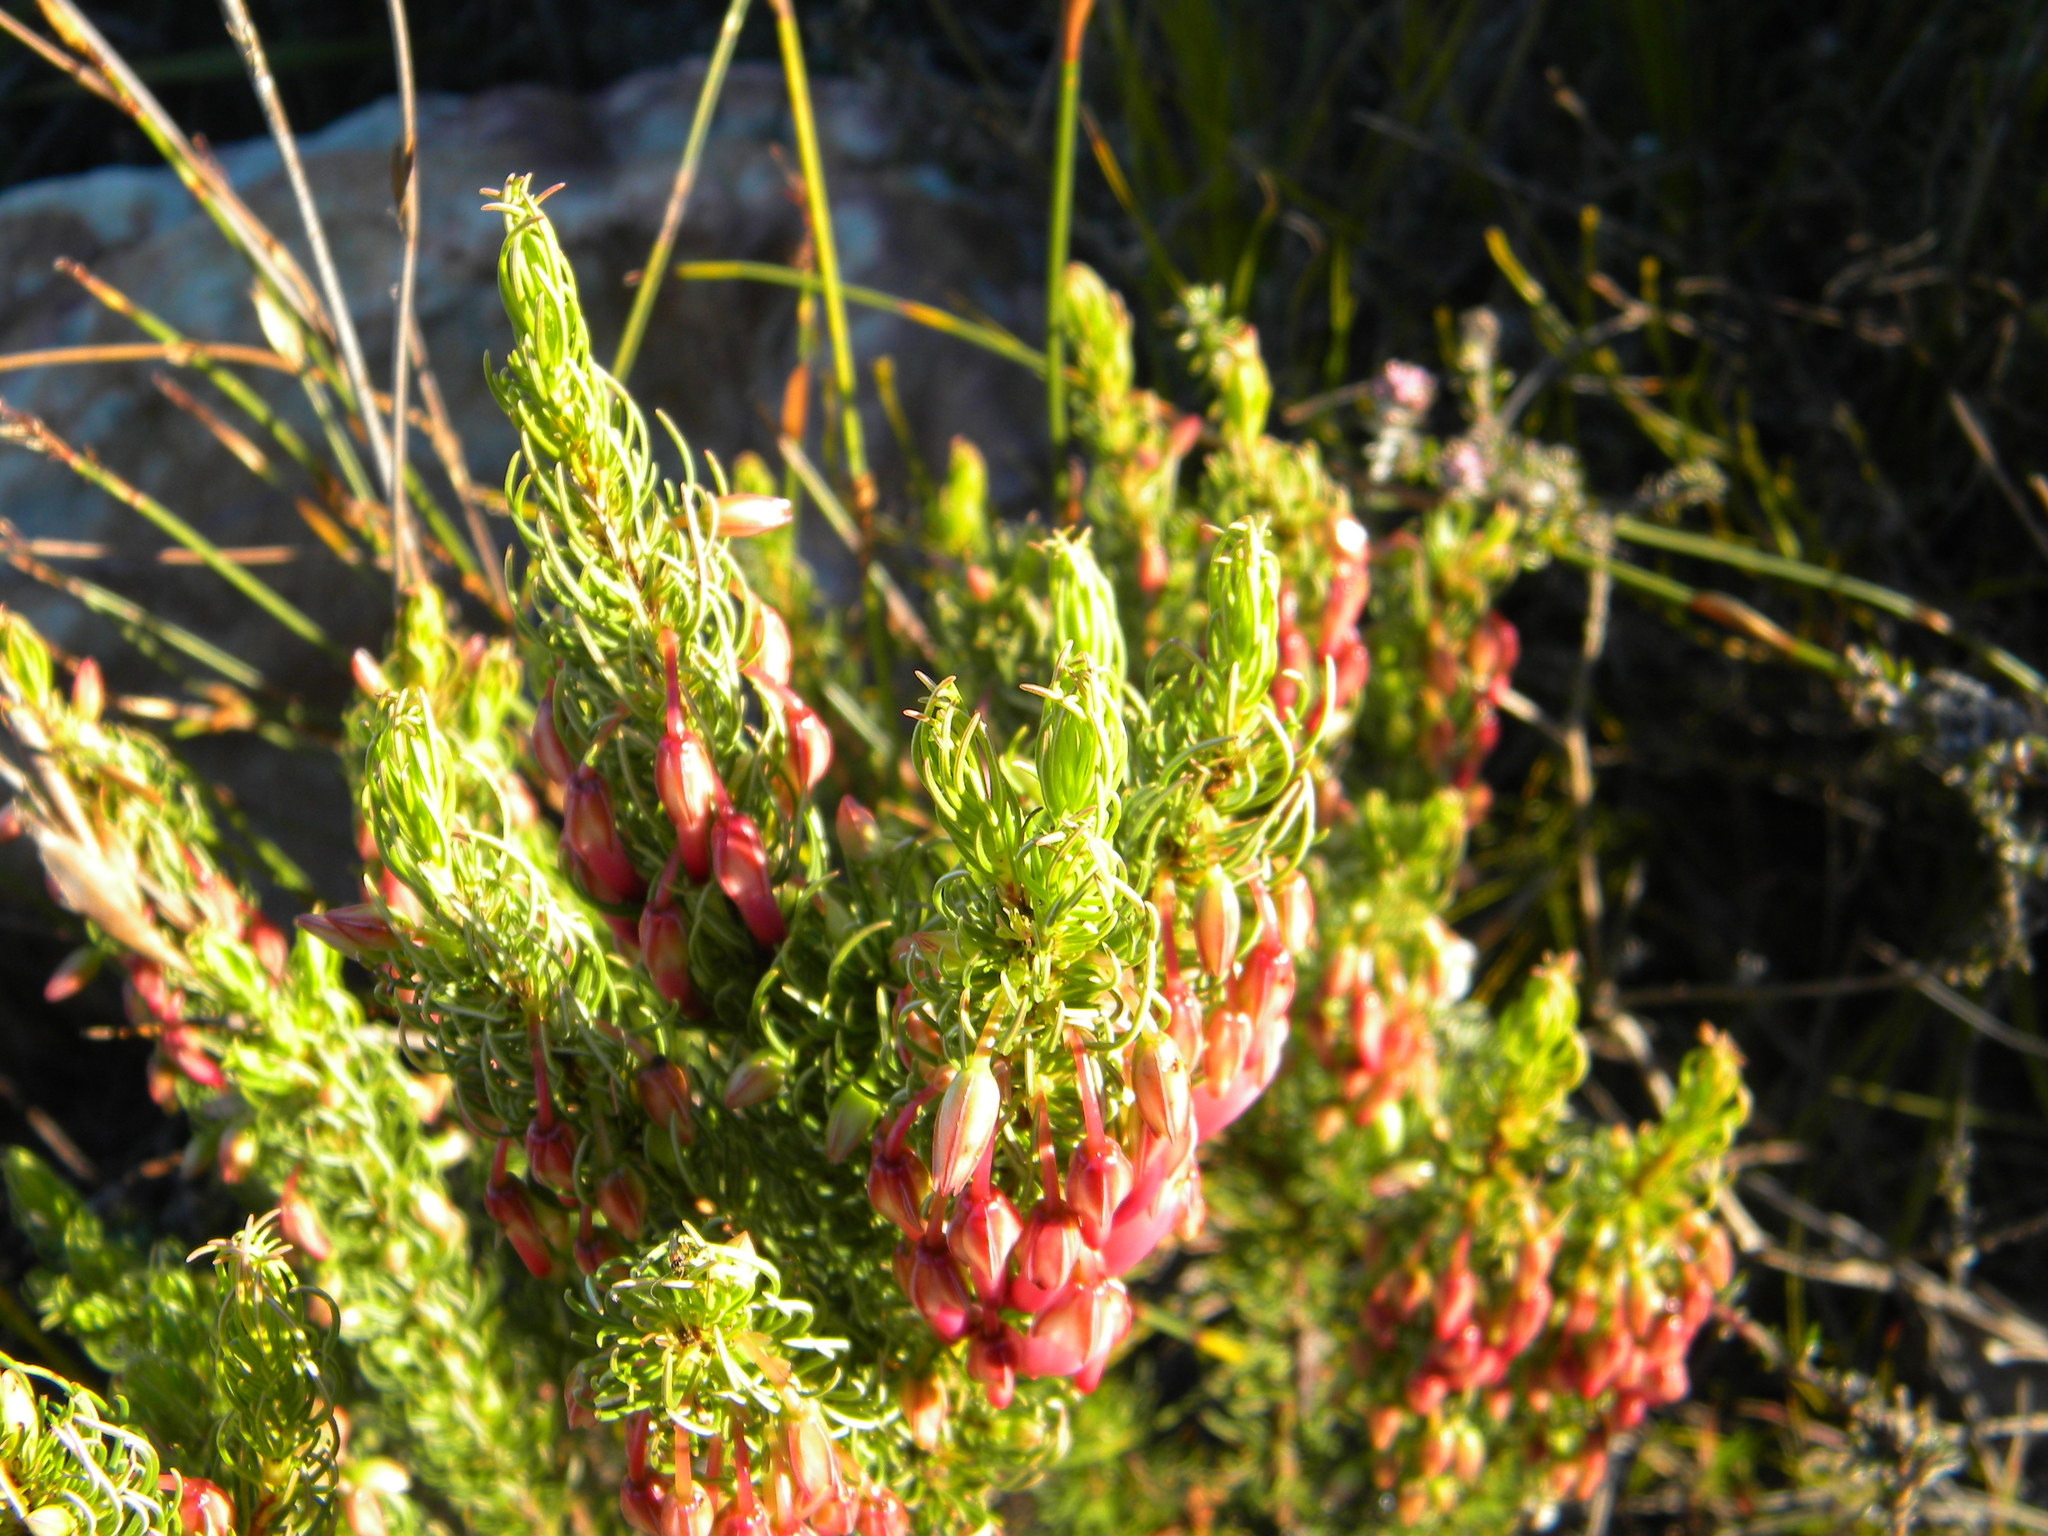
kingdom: Plantae
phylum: Tracheophyta
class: Magnoliopsida
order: Ericales
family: Ericaceae
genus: Erica
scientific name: Erica plukenetii
